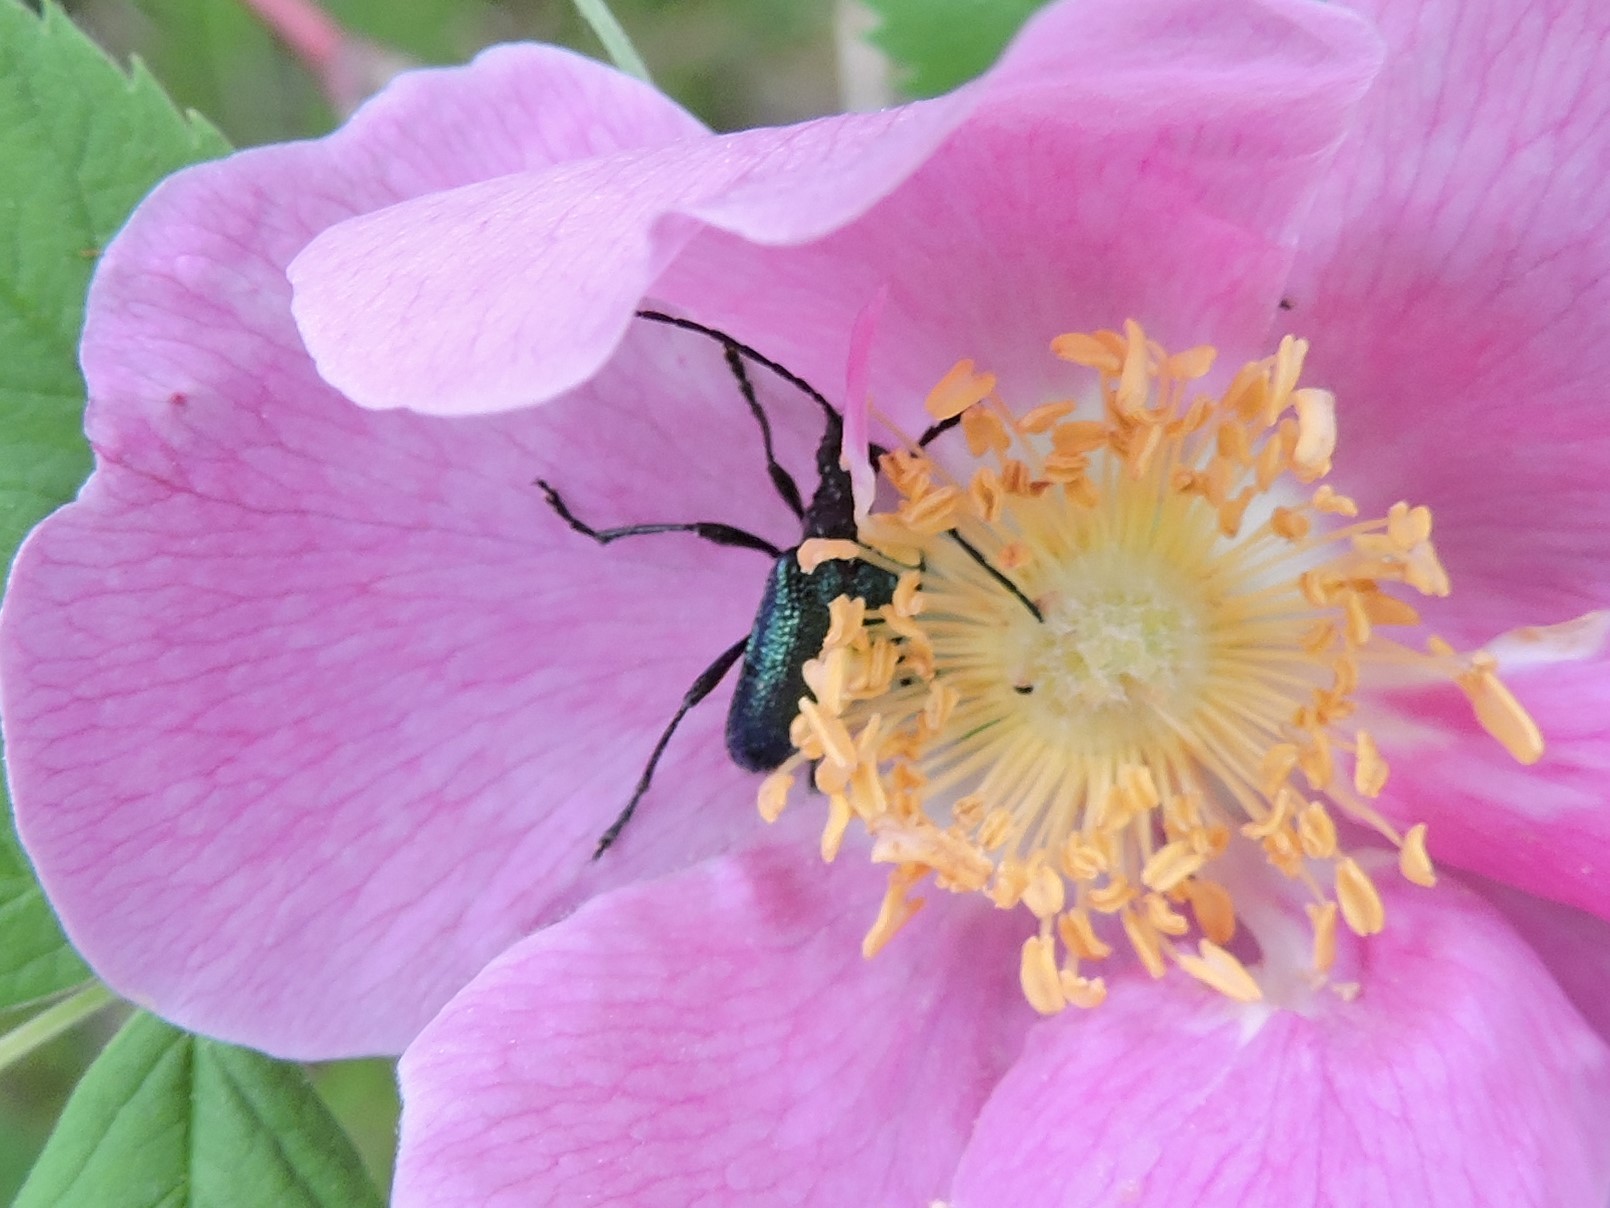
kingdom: Animalia
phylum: Arthropoda
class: Insecta
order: Coleoptera
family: Cerambycidae
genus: Gaurotes
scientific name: Gaurotes virginea
